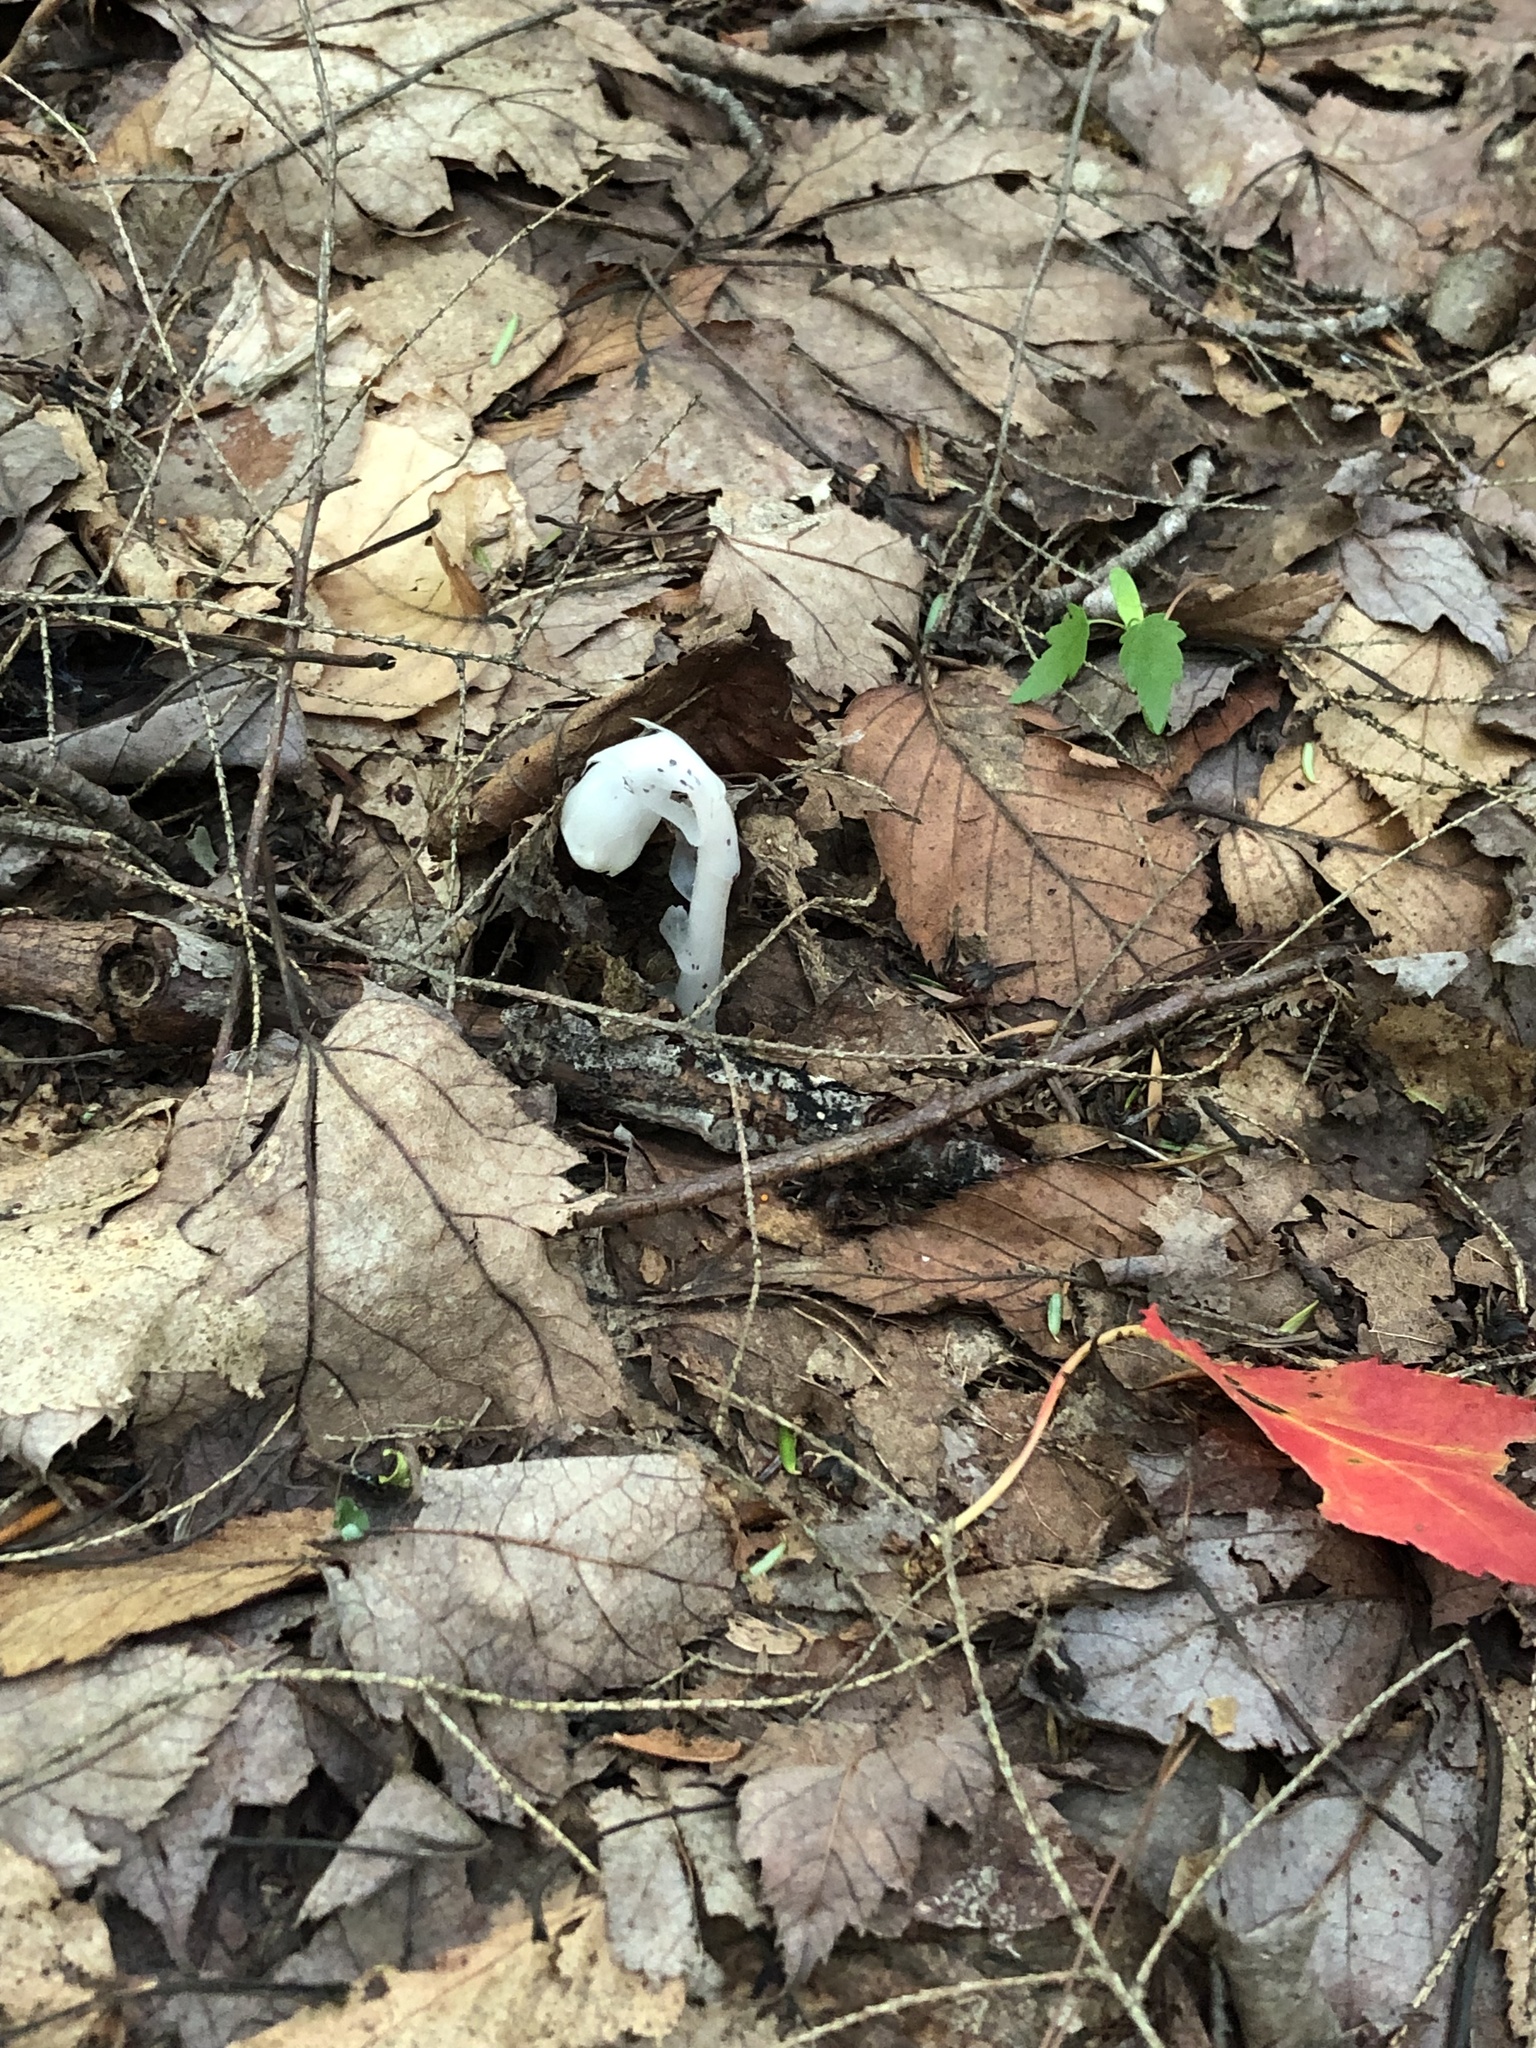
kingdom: Plantae
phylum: Tracheophyta
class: Magnoliopsida
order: Ericales
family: Ericaceae
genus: Monotropa
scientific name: Monotropa uniflora
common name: Convulsion root
